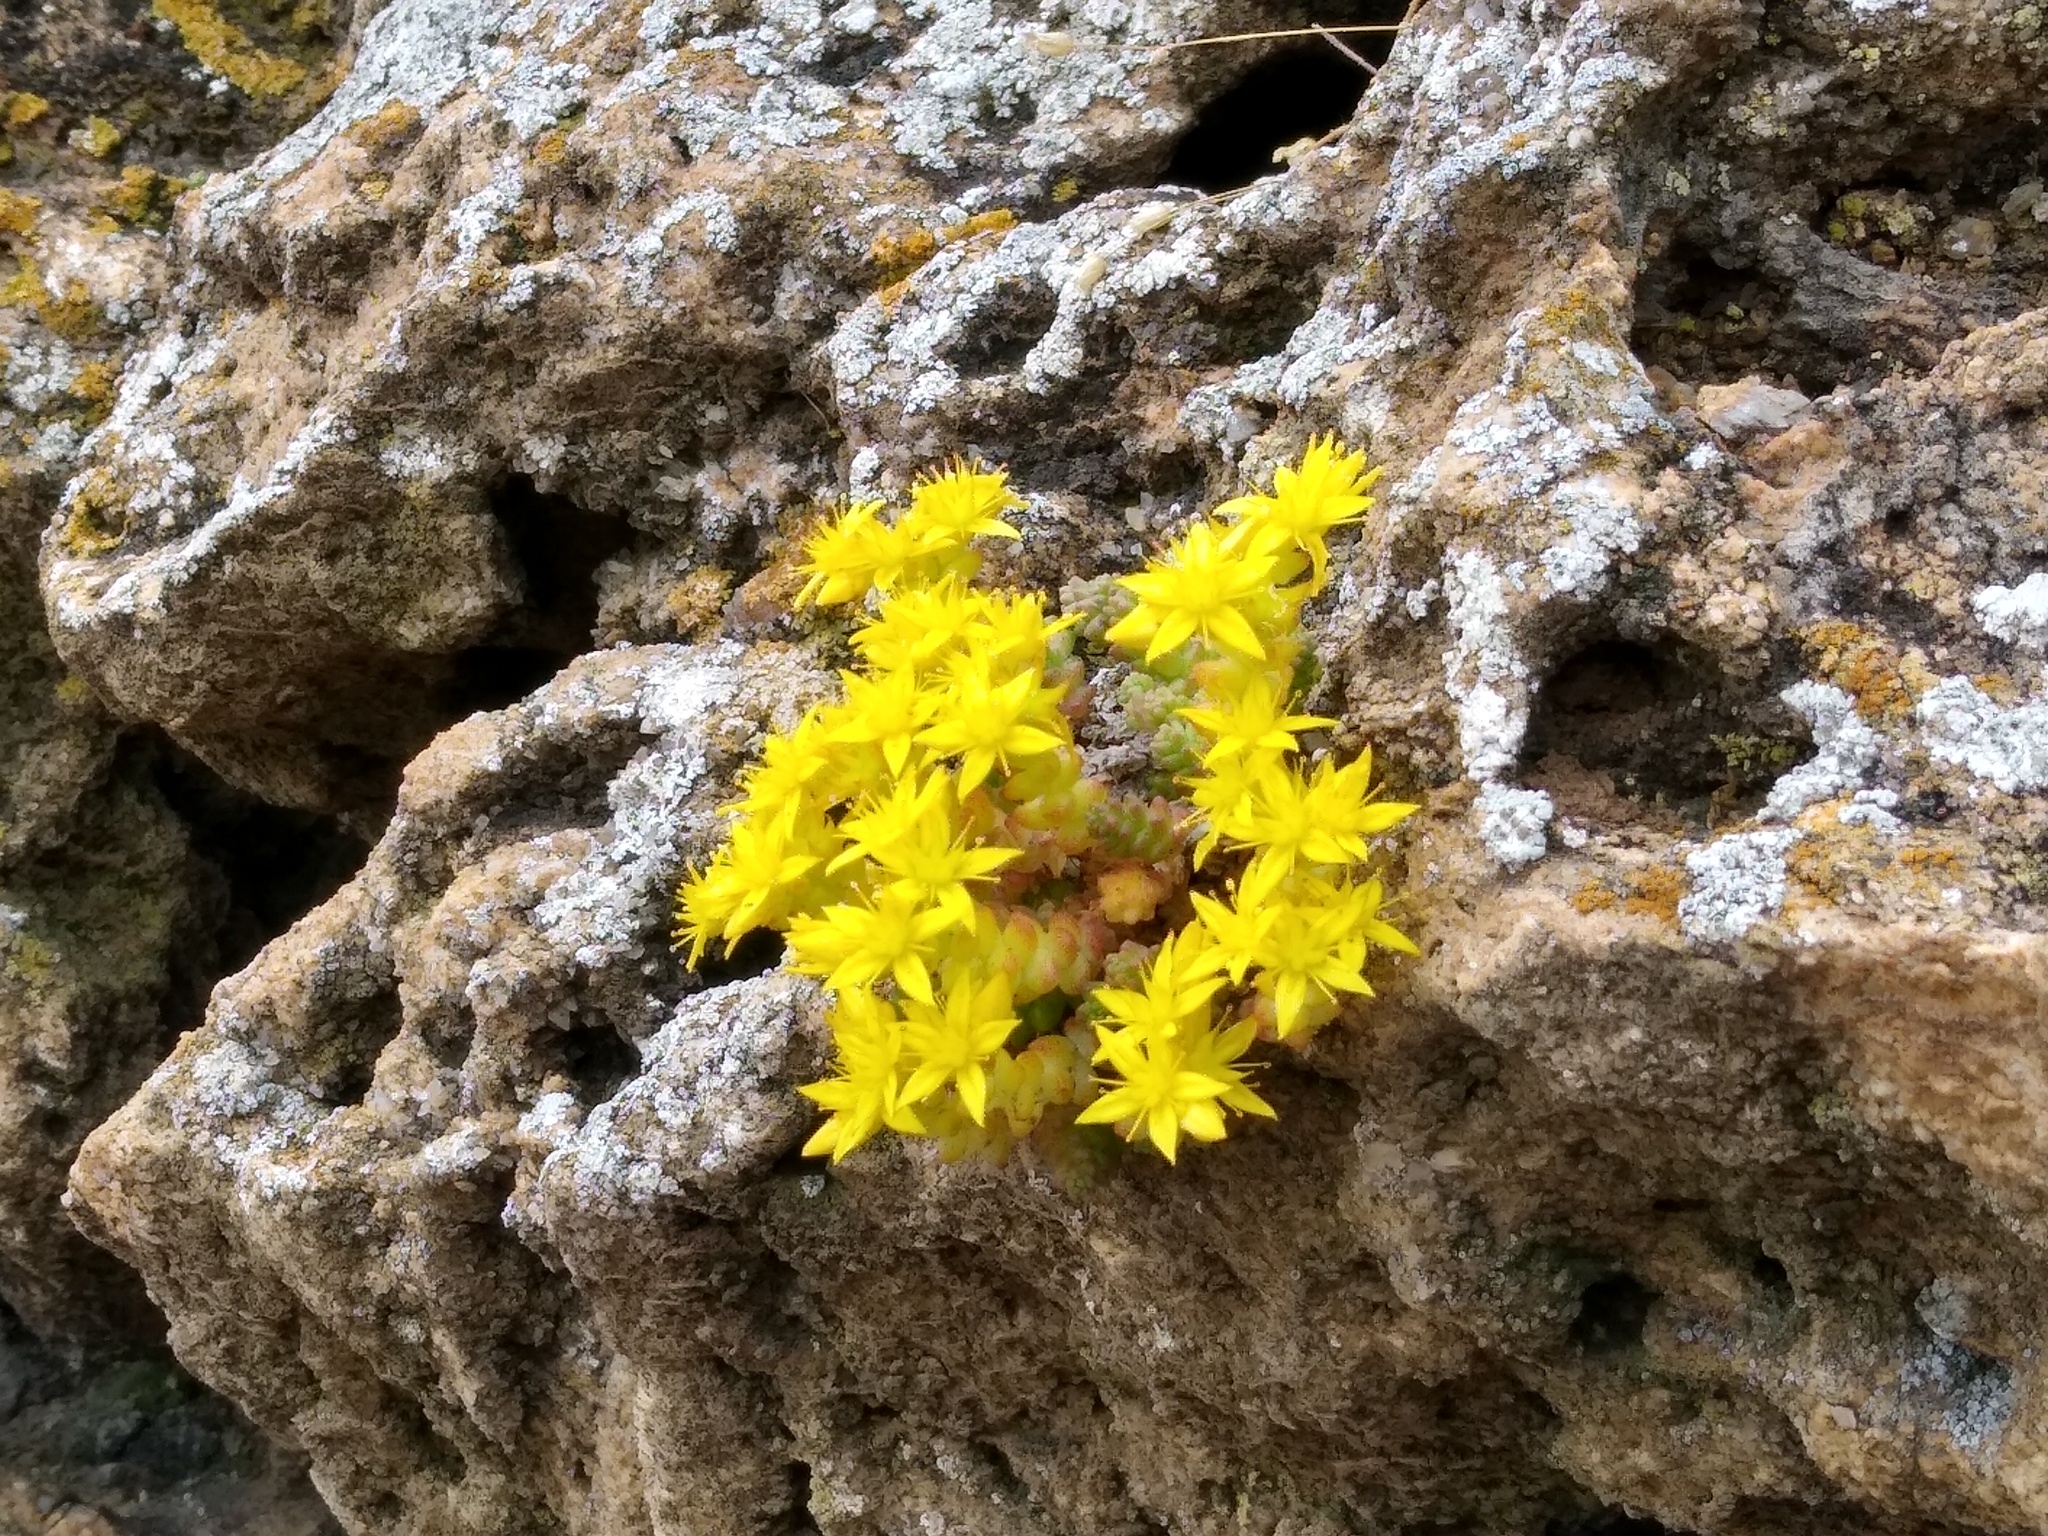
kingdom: Plantae
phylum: Tracheophyta
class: Magnoliopsida
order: Saxifragales
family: Crassulaceae
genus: Sedum
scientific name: Sedum acre
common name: Biting stonecrop
